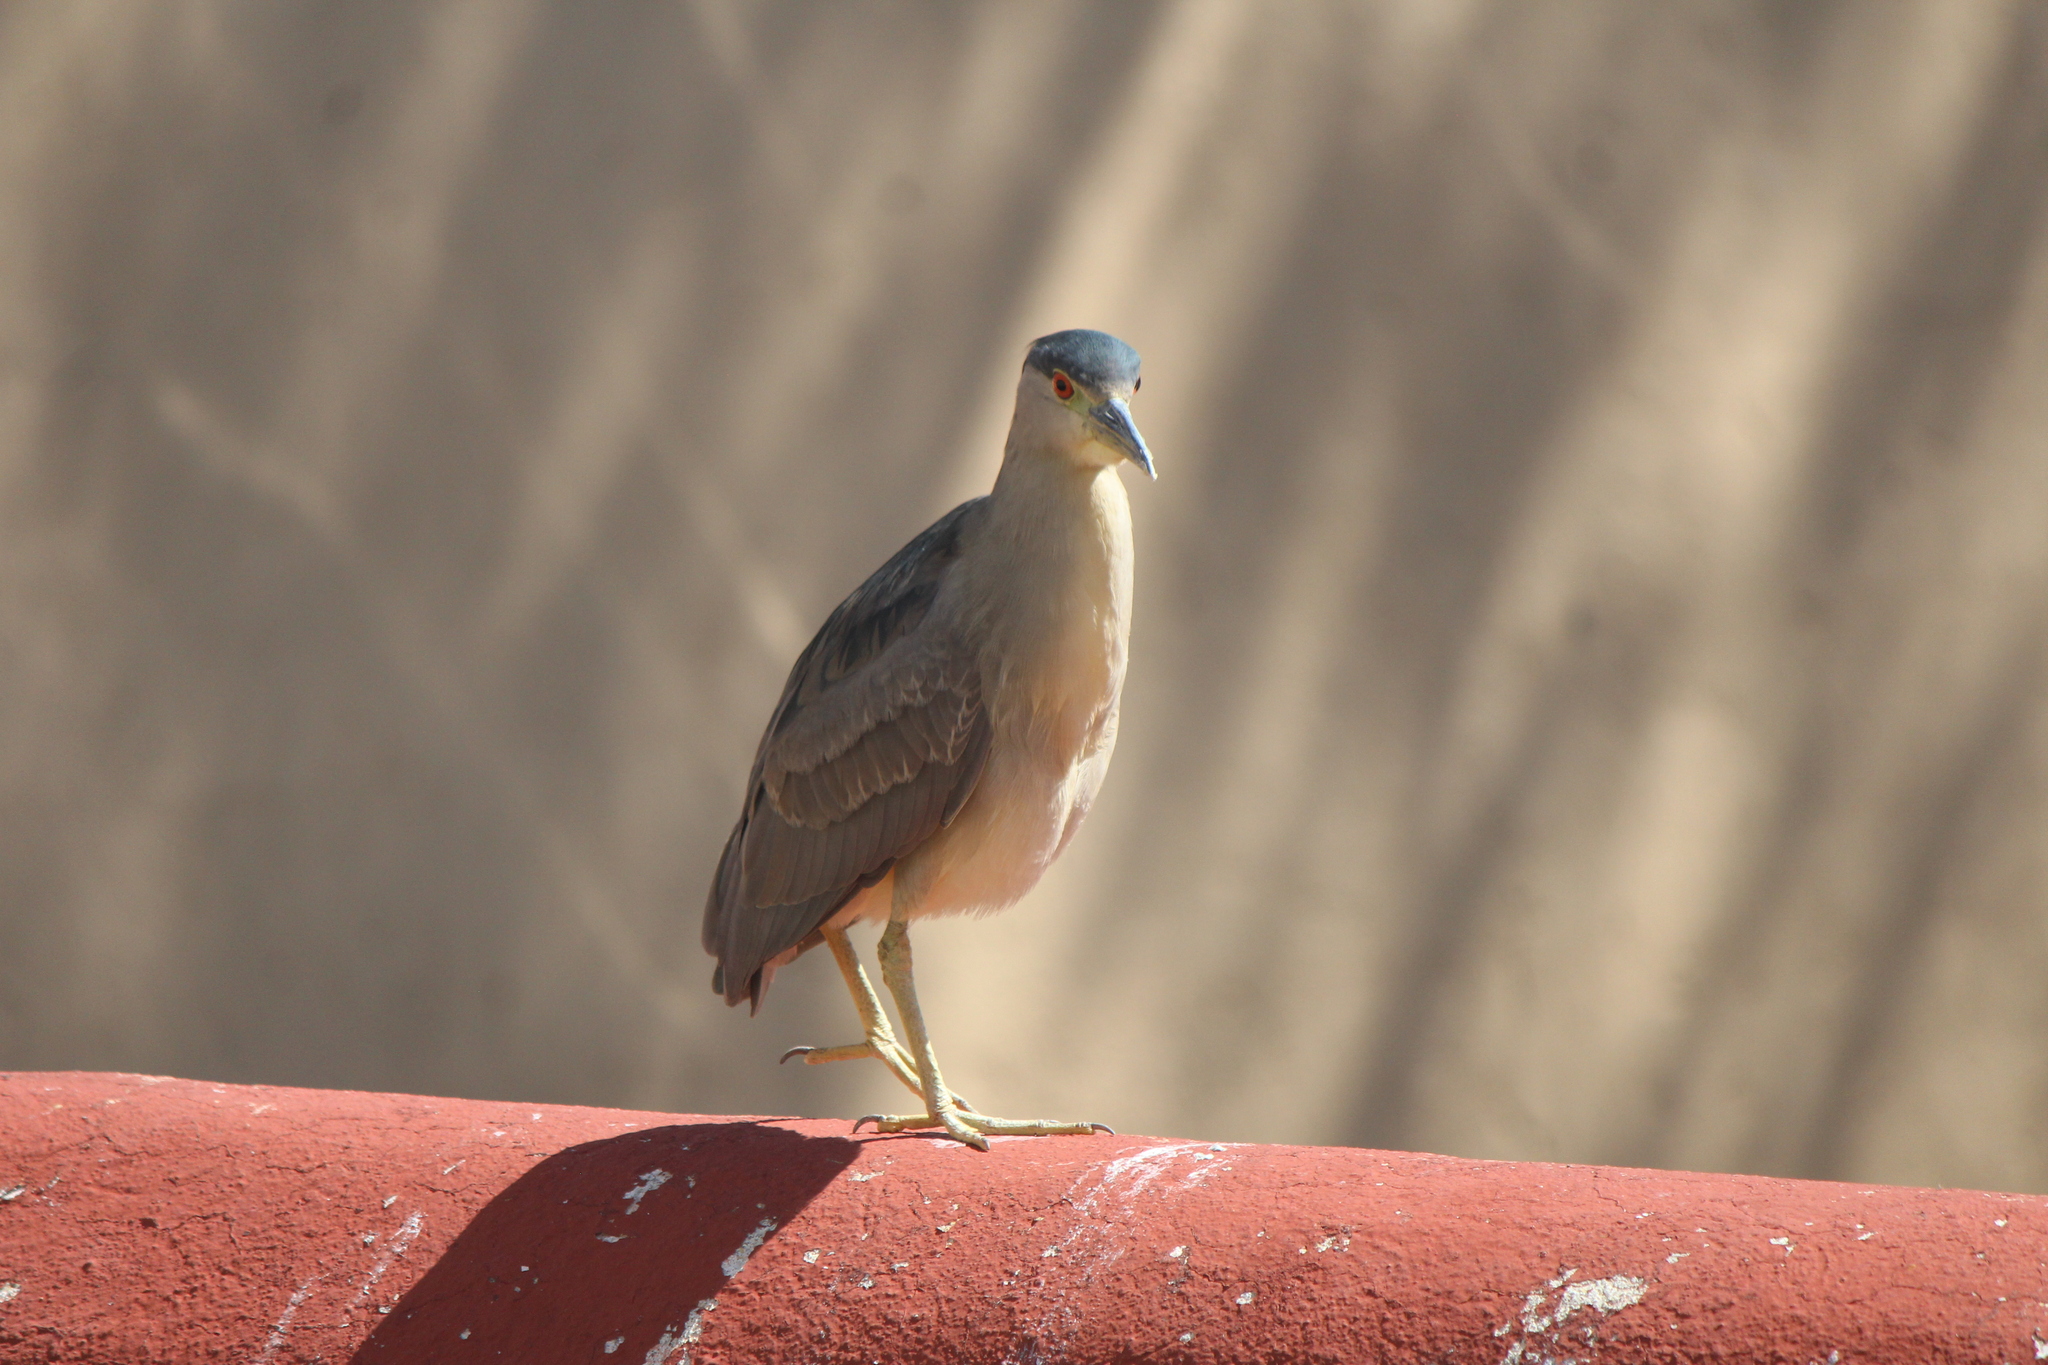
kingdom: Animalia
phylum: Chordata
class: Aves
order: Pelecaniformes
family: Ardeidae
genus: Nycticorax
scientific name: Nycticorax nycticorax
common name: Black-crowned night heron
